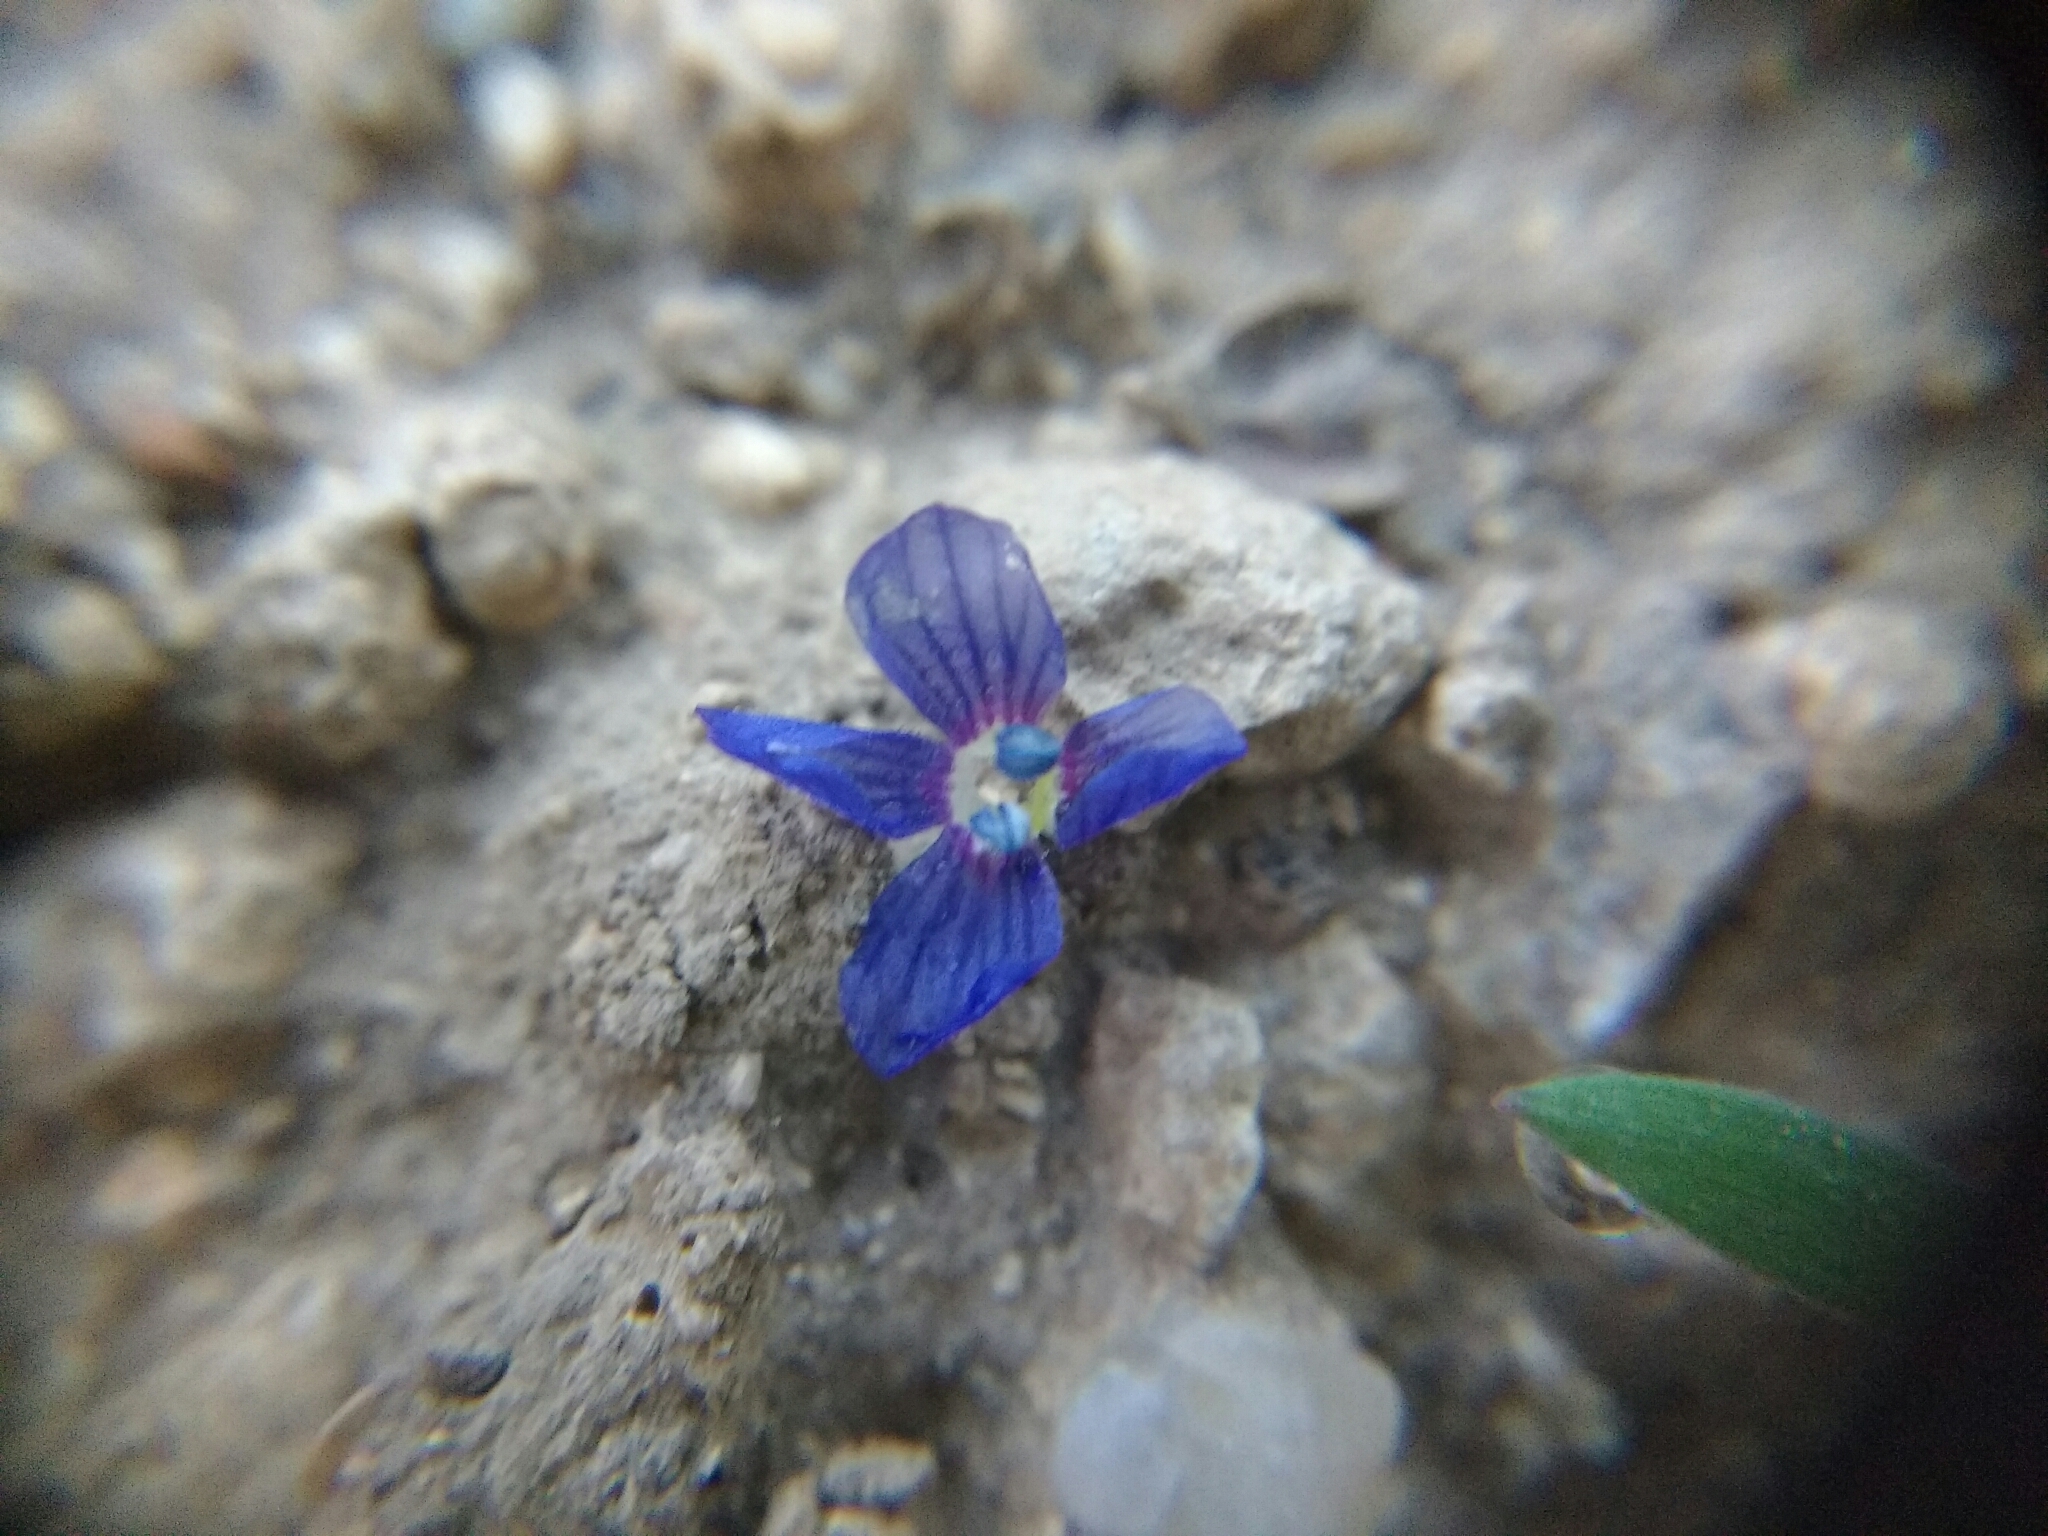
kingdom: Plantae
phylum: Tracheophyta
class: Magnoliopsida
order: Lamiales
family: Plantaginaceae
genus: Veronica
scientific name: Veronica triphyllos
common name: Fingered speedwell
